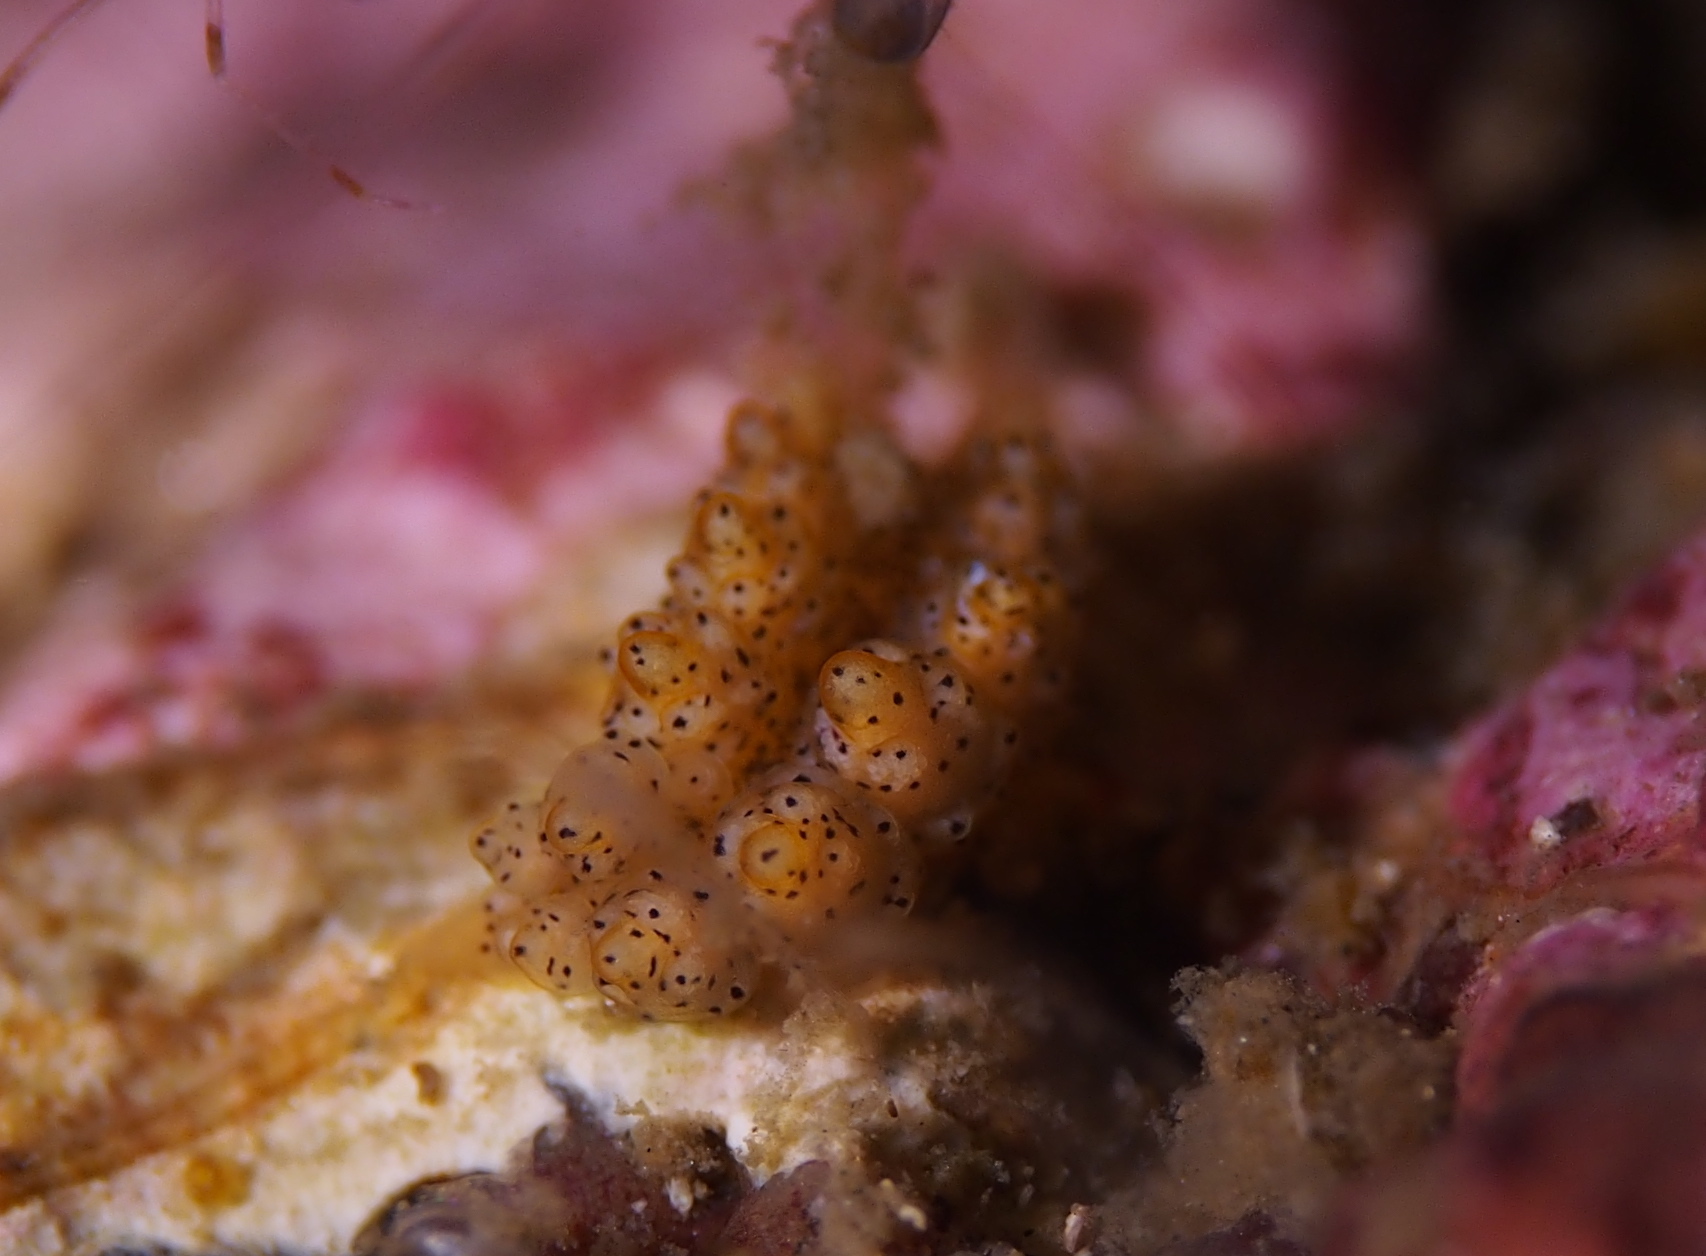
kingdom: Animalia
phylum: Mollusca
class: Gastropoda
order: Nudibranchia
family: Dotidae
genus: Doto
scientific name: Doto dunnei
